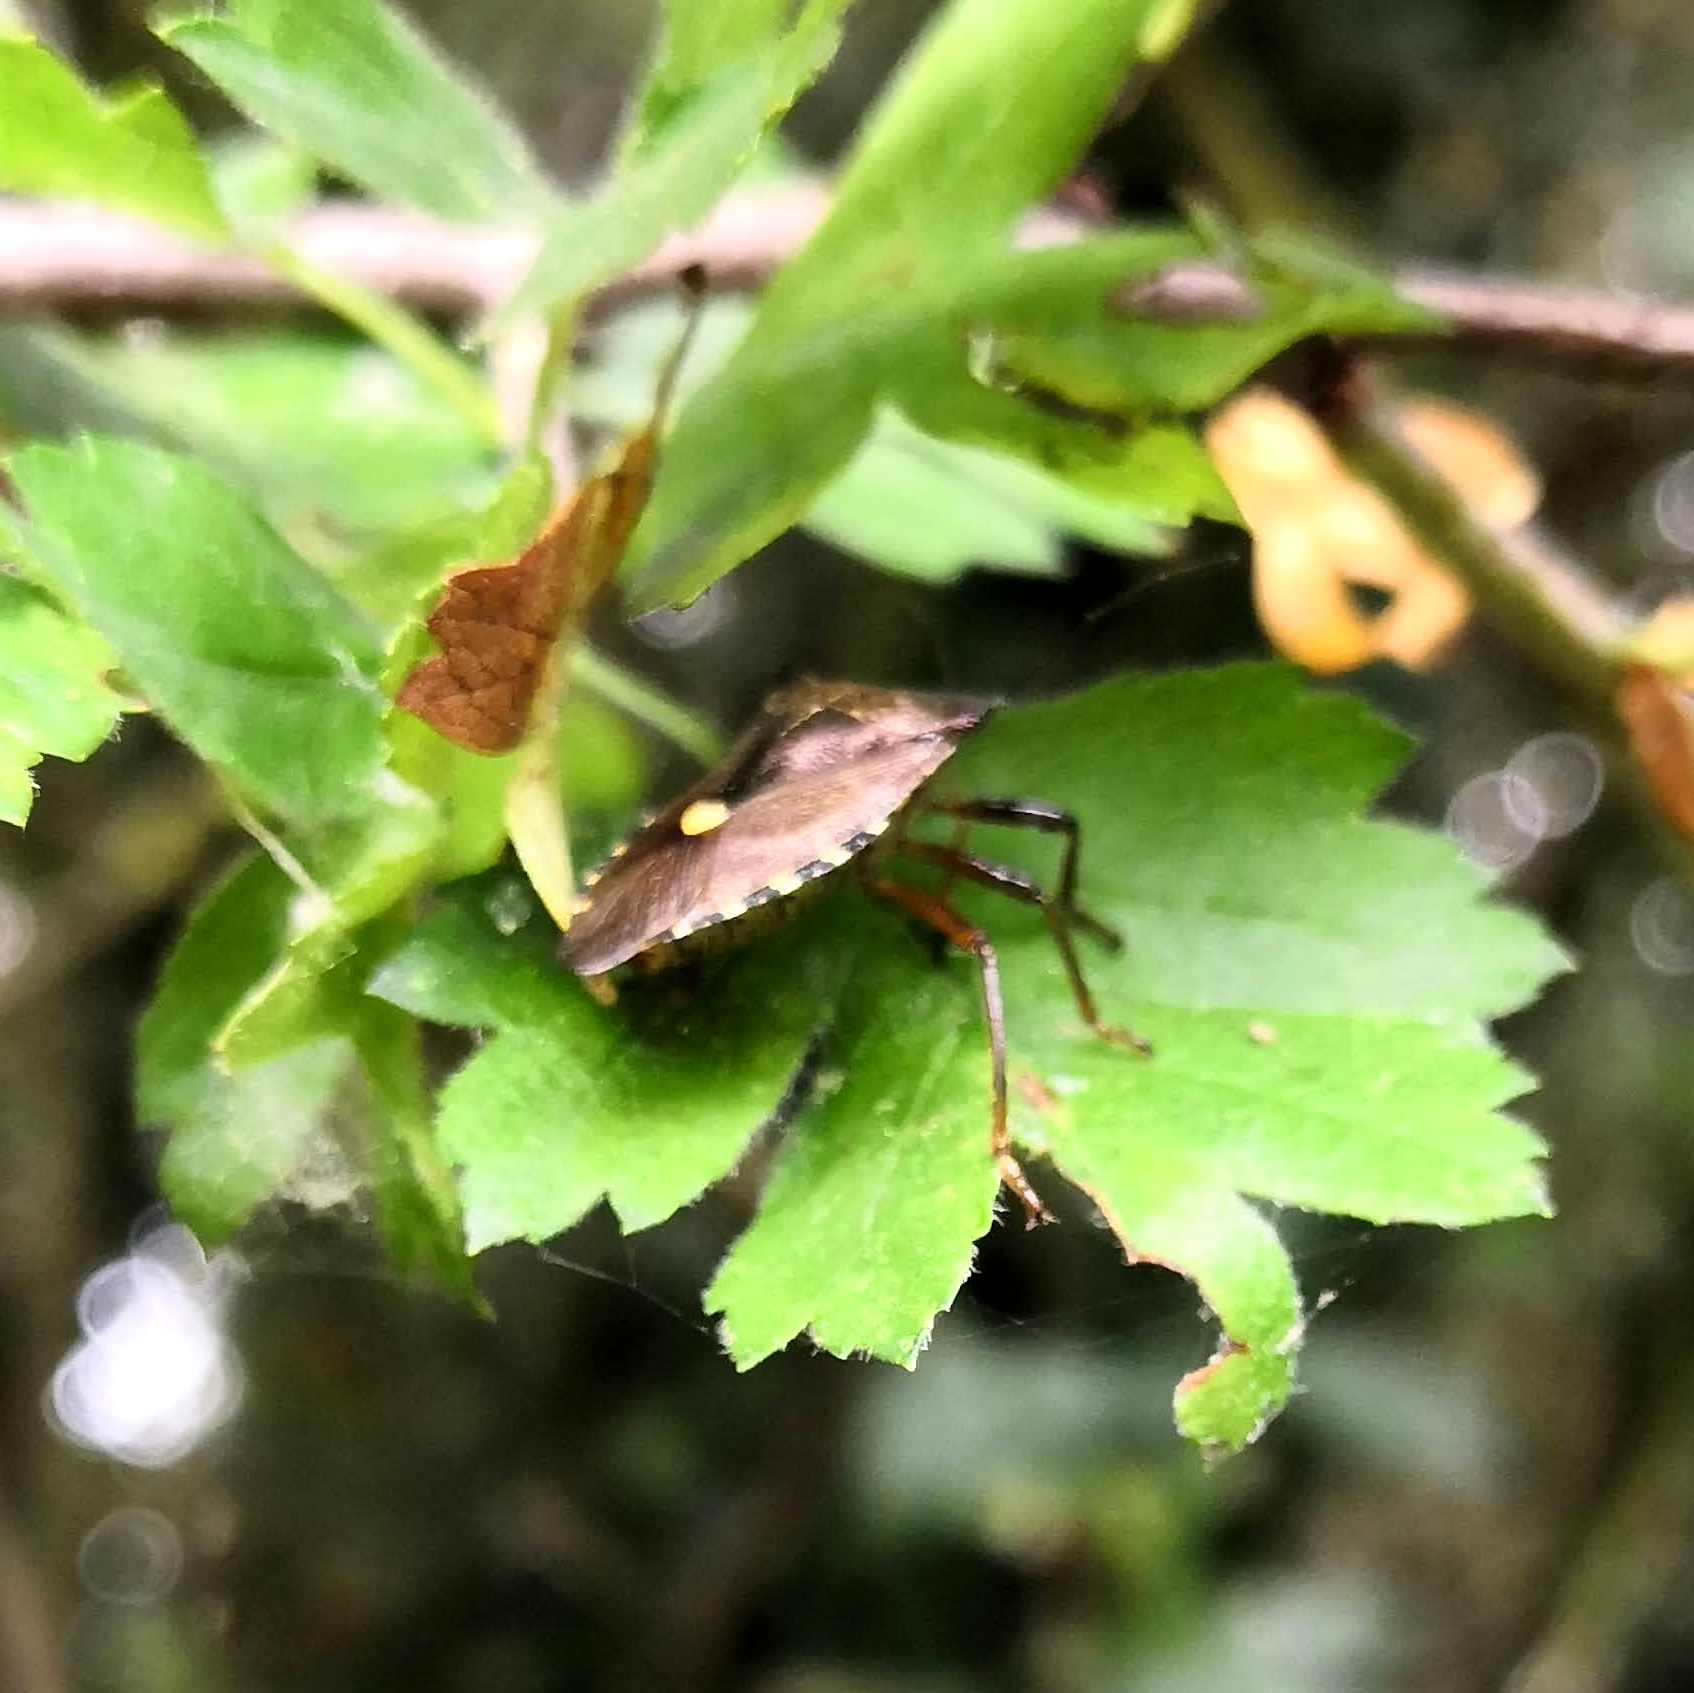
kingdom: Animalia
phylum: Arthropoda
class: Insecta
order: Hemiptera
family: Pentatomidae
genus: Pentatoma
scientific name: Pentatoma rufipes
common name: Forest bug
